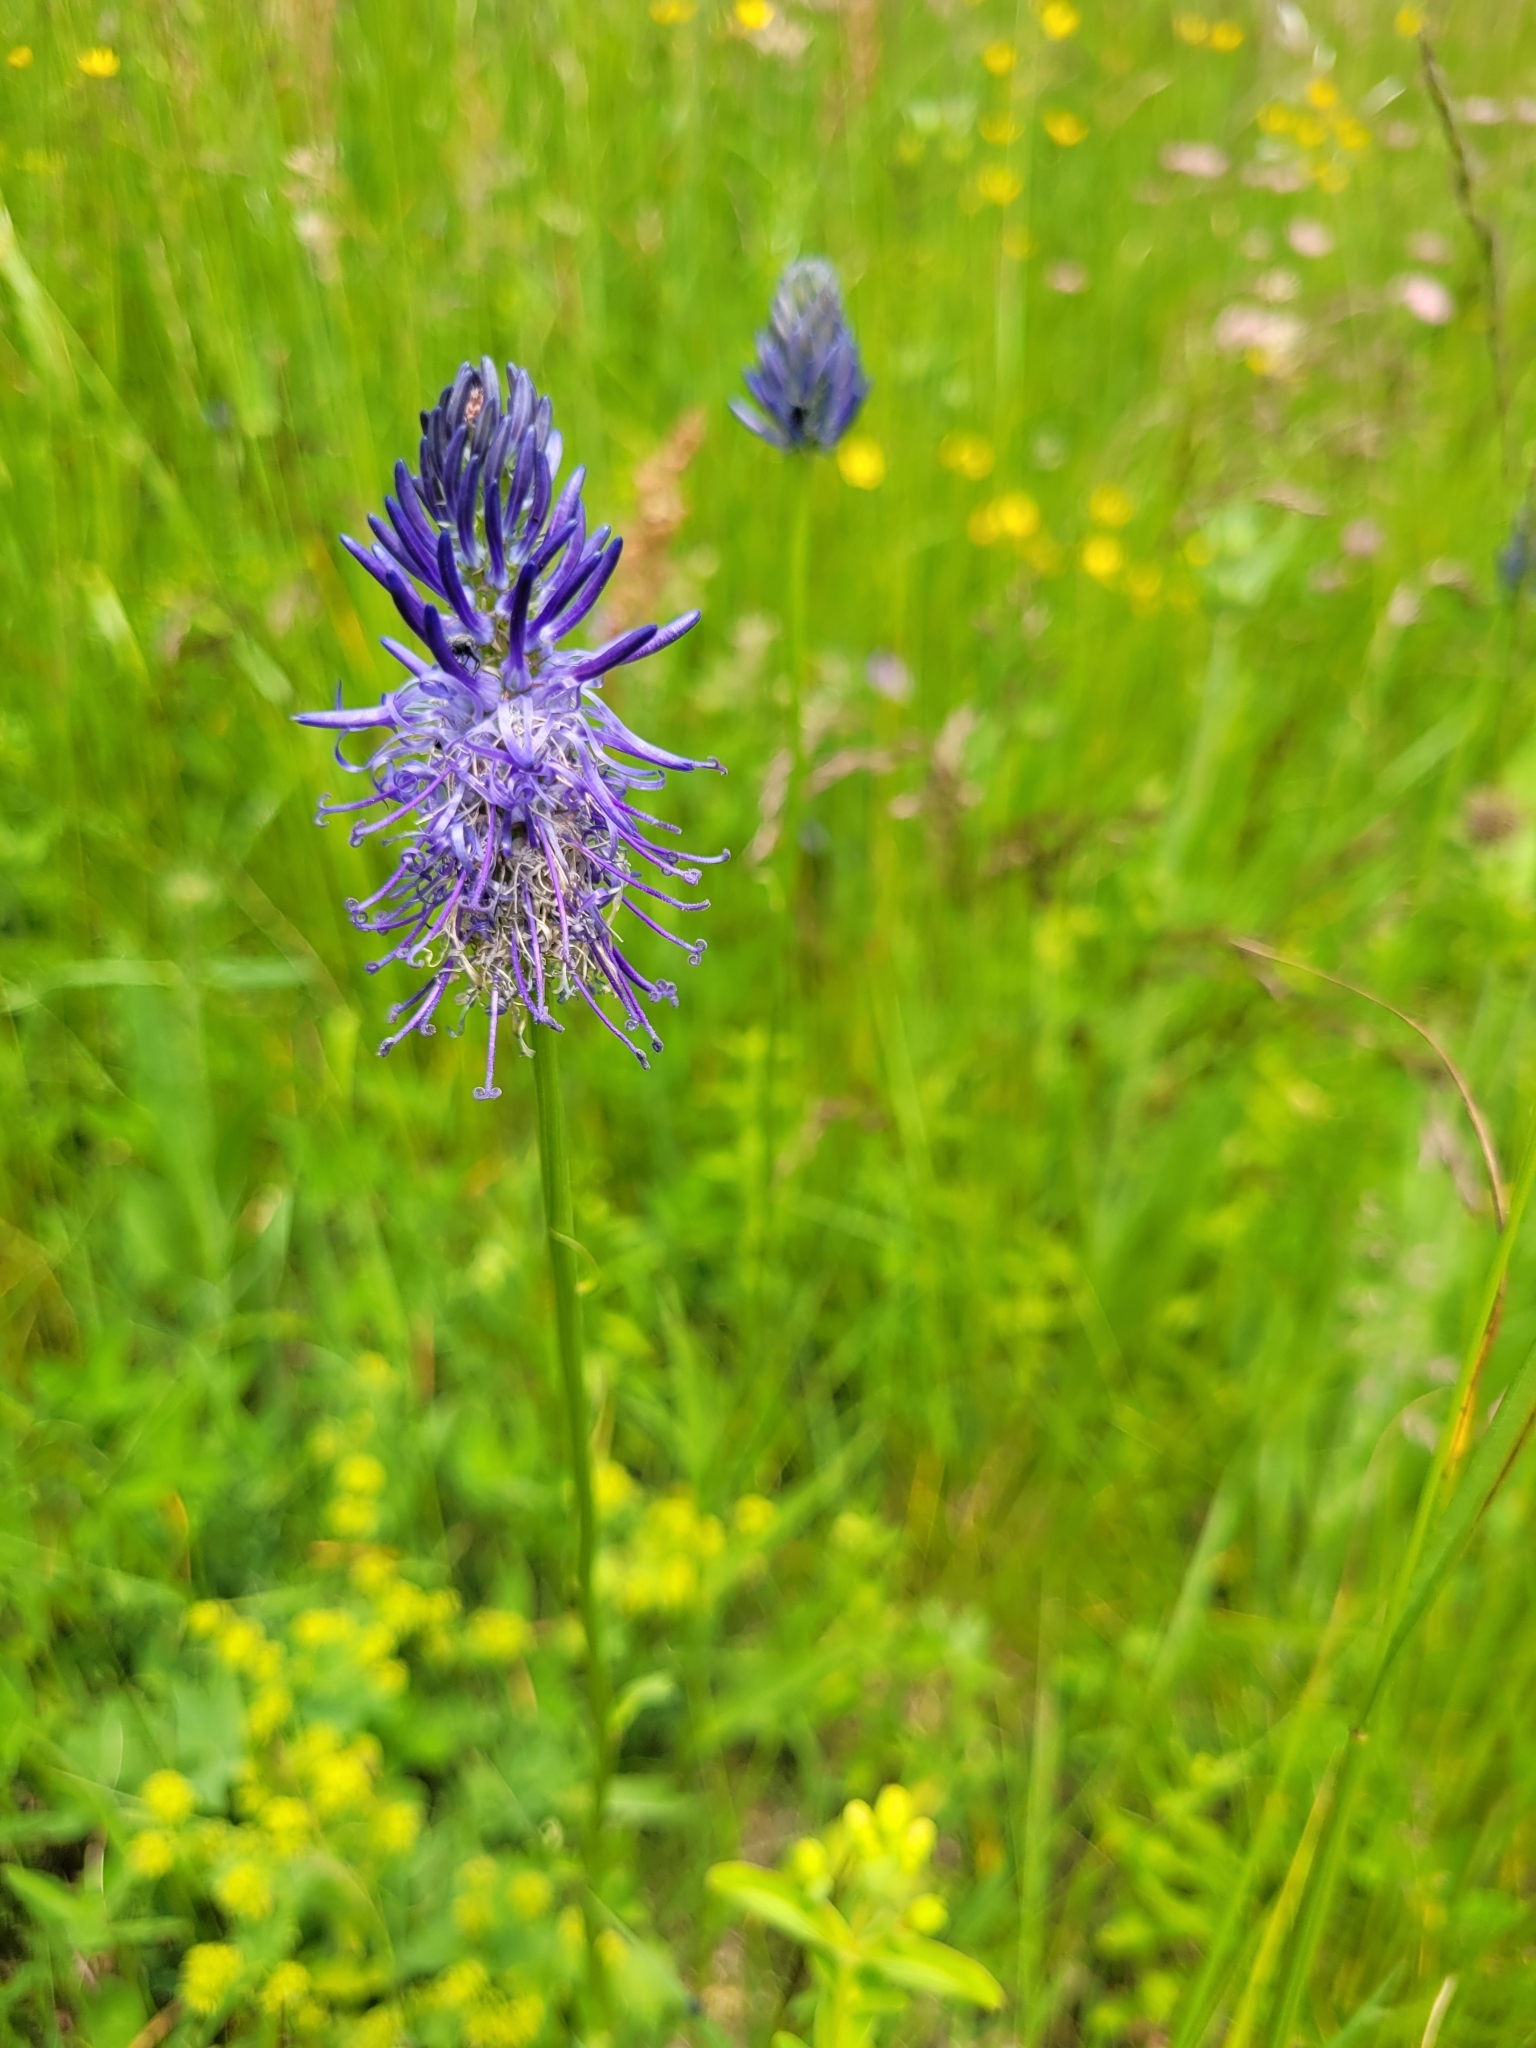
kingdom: Plantae
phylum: Tracheophyta
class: Magnoliopsida
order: Asterales
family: Campanulaceae
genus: Phyteuma
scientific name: Phyteuma persicifolium
